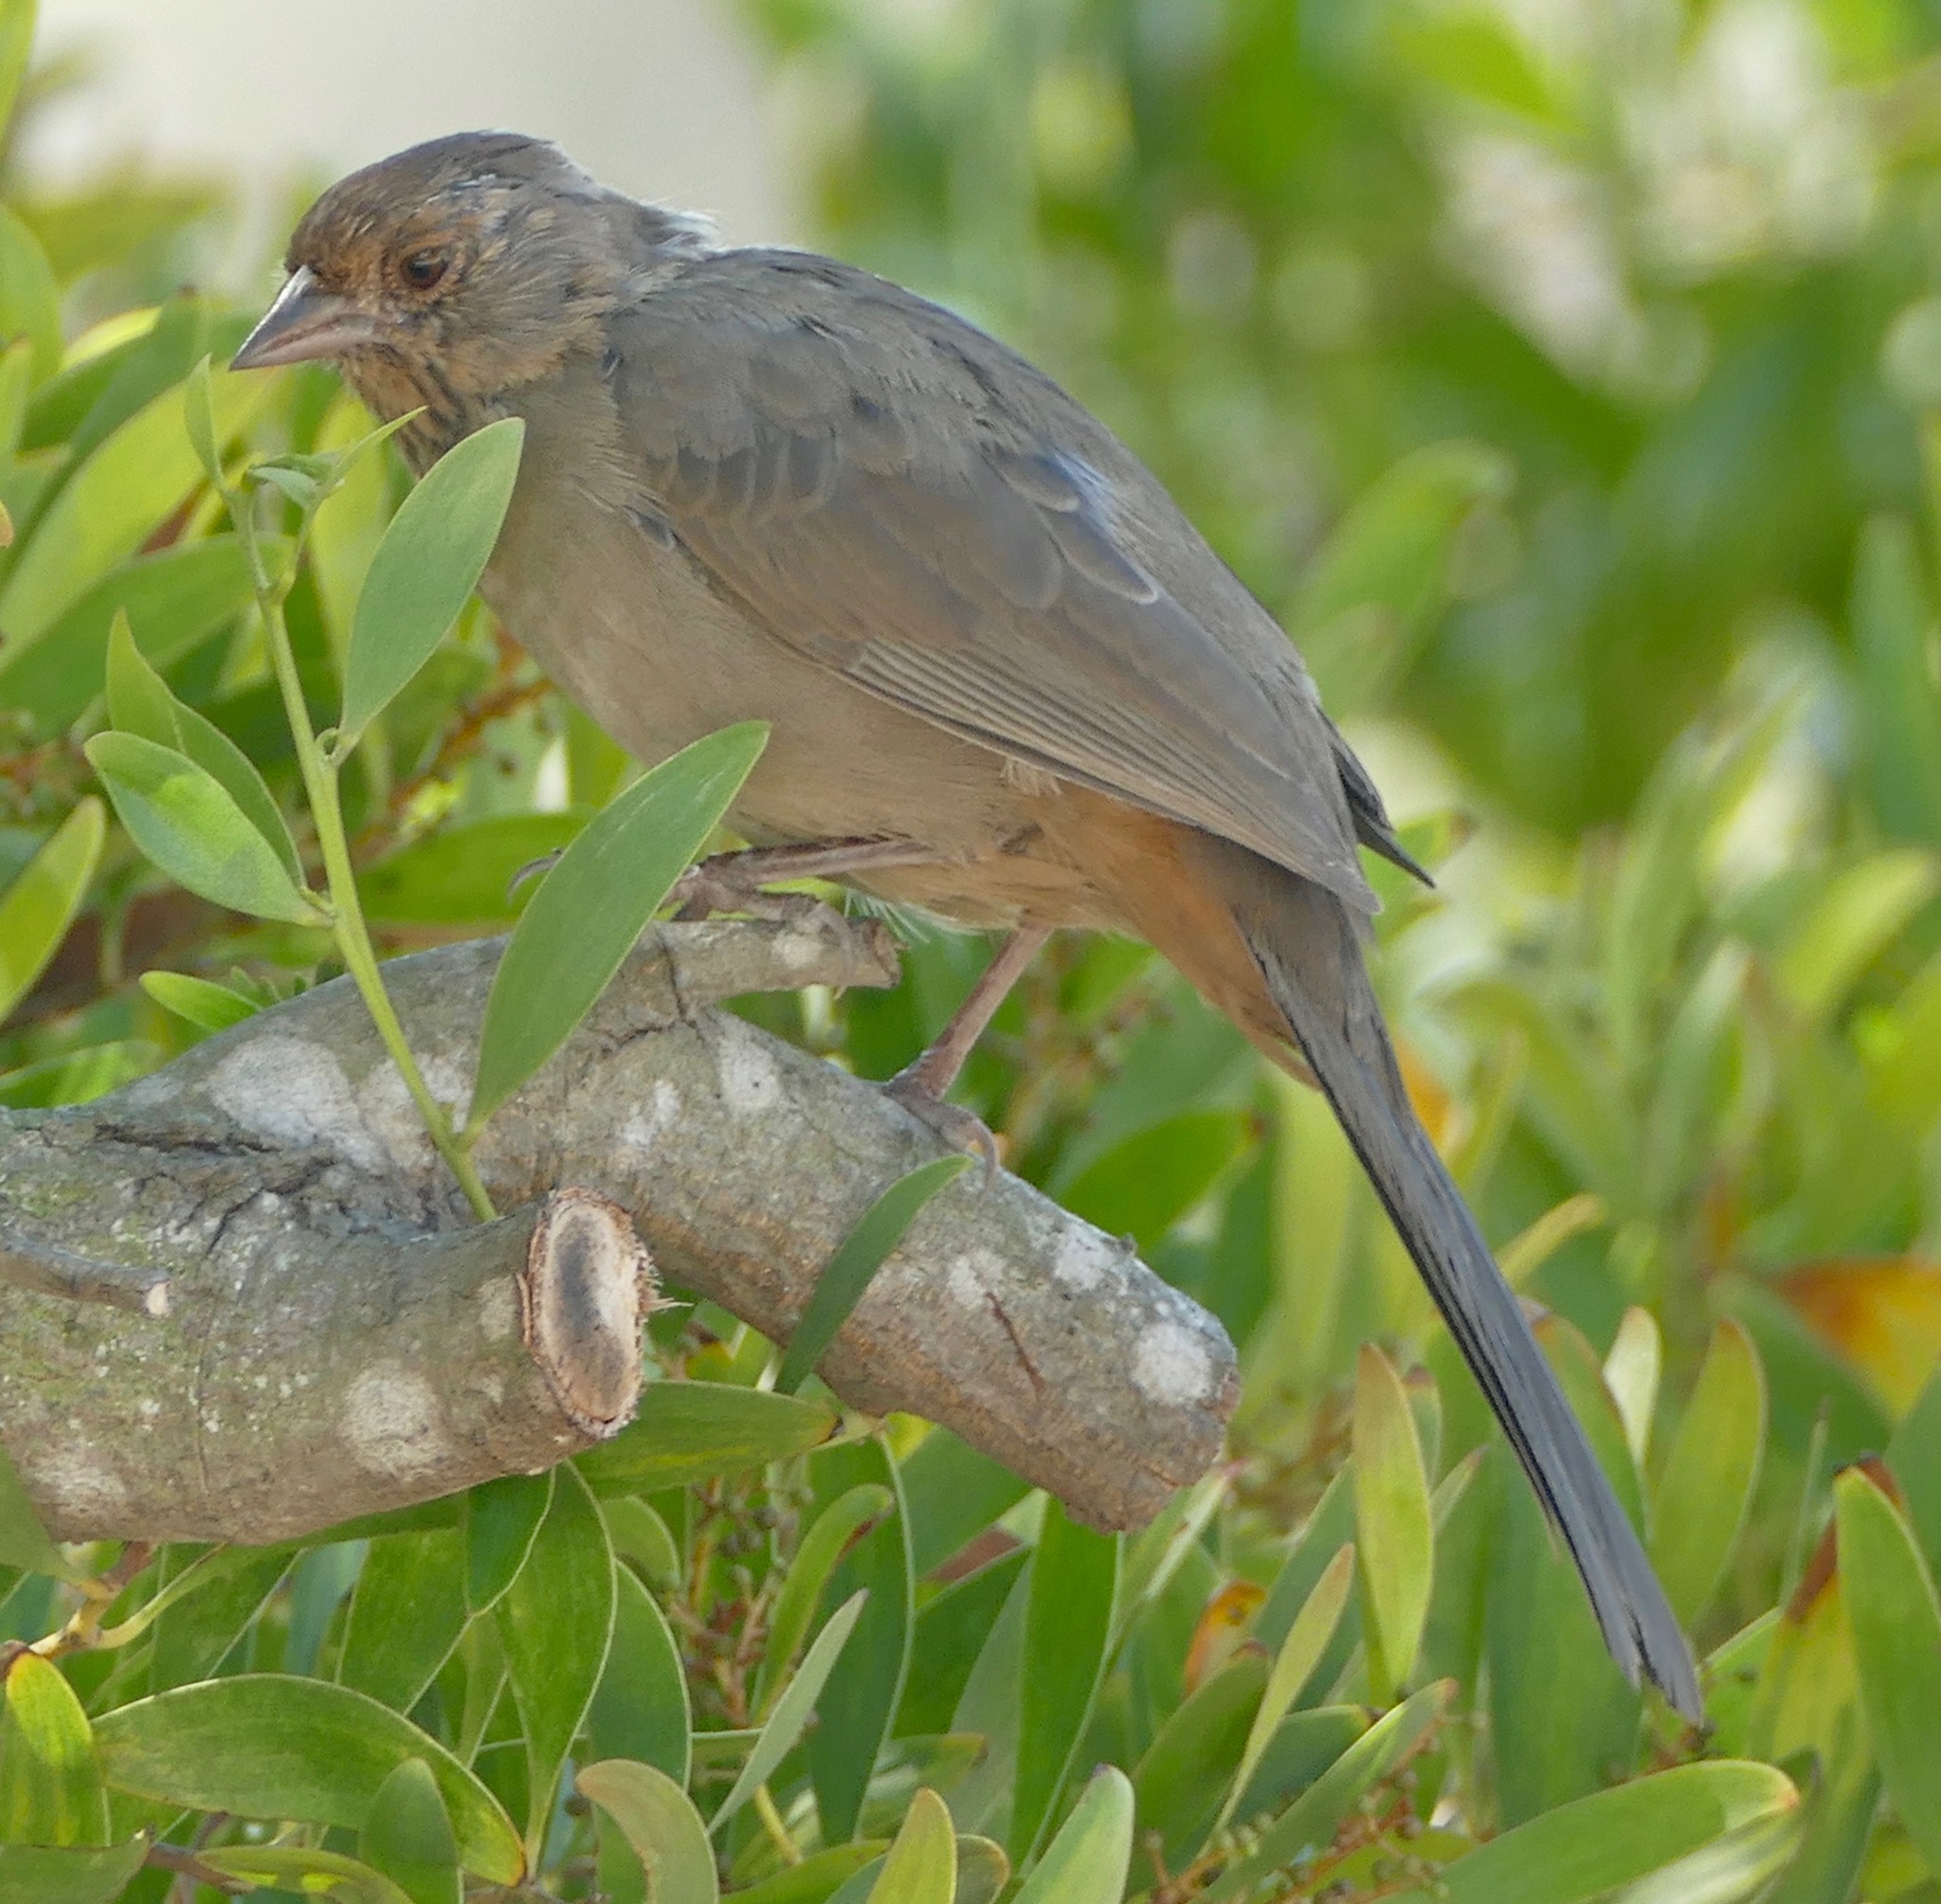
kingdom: Animalia
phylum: Chordata
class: Aves
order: Passeriformes
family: Passerellidae
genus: Melozone
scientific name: Melozone crissalis
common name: California towhee
